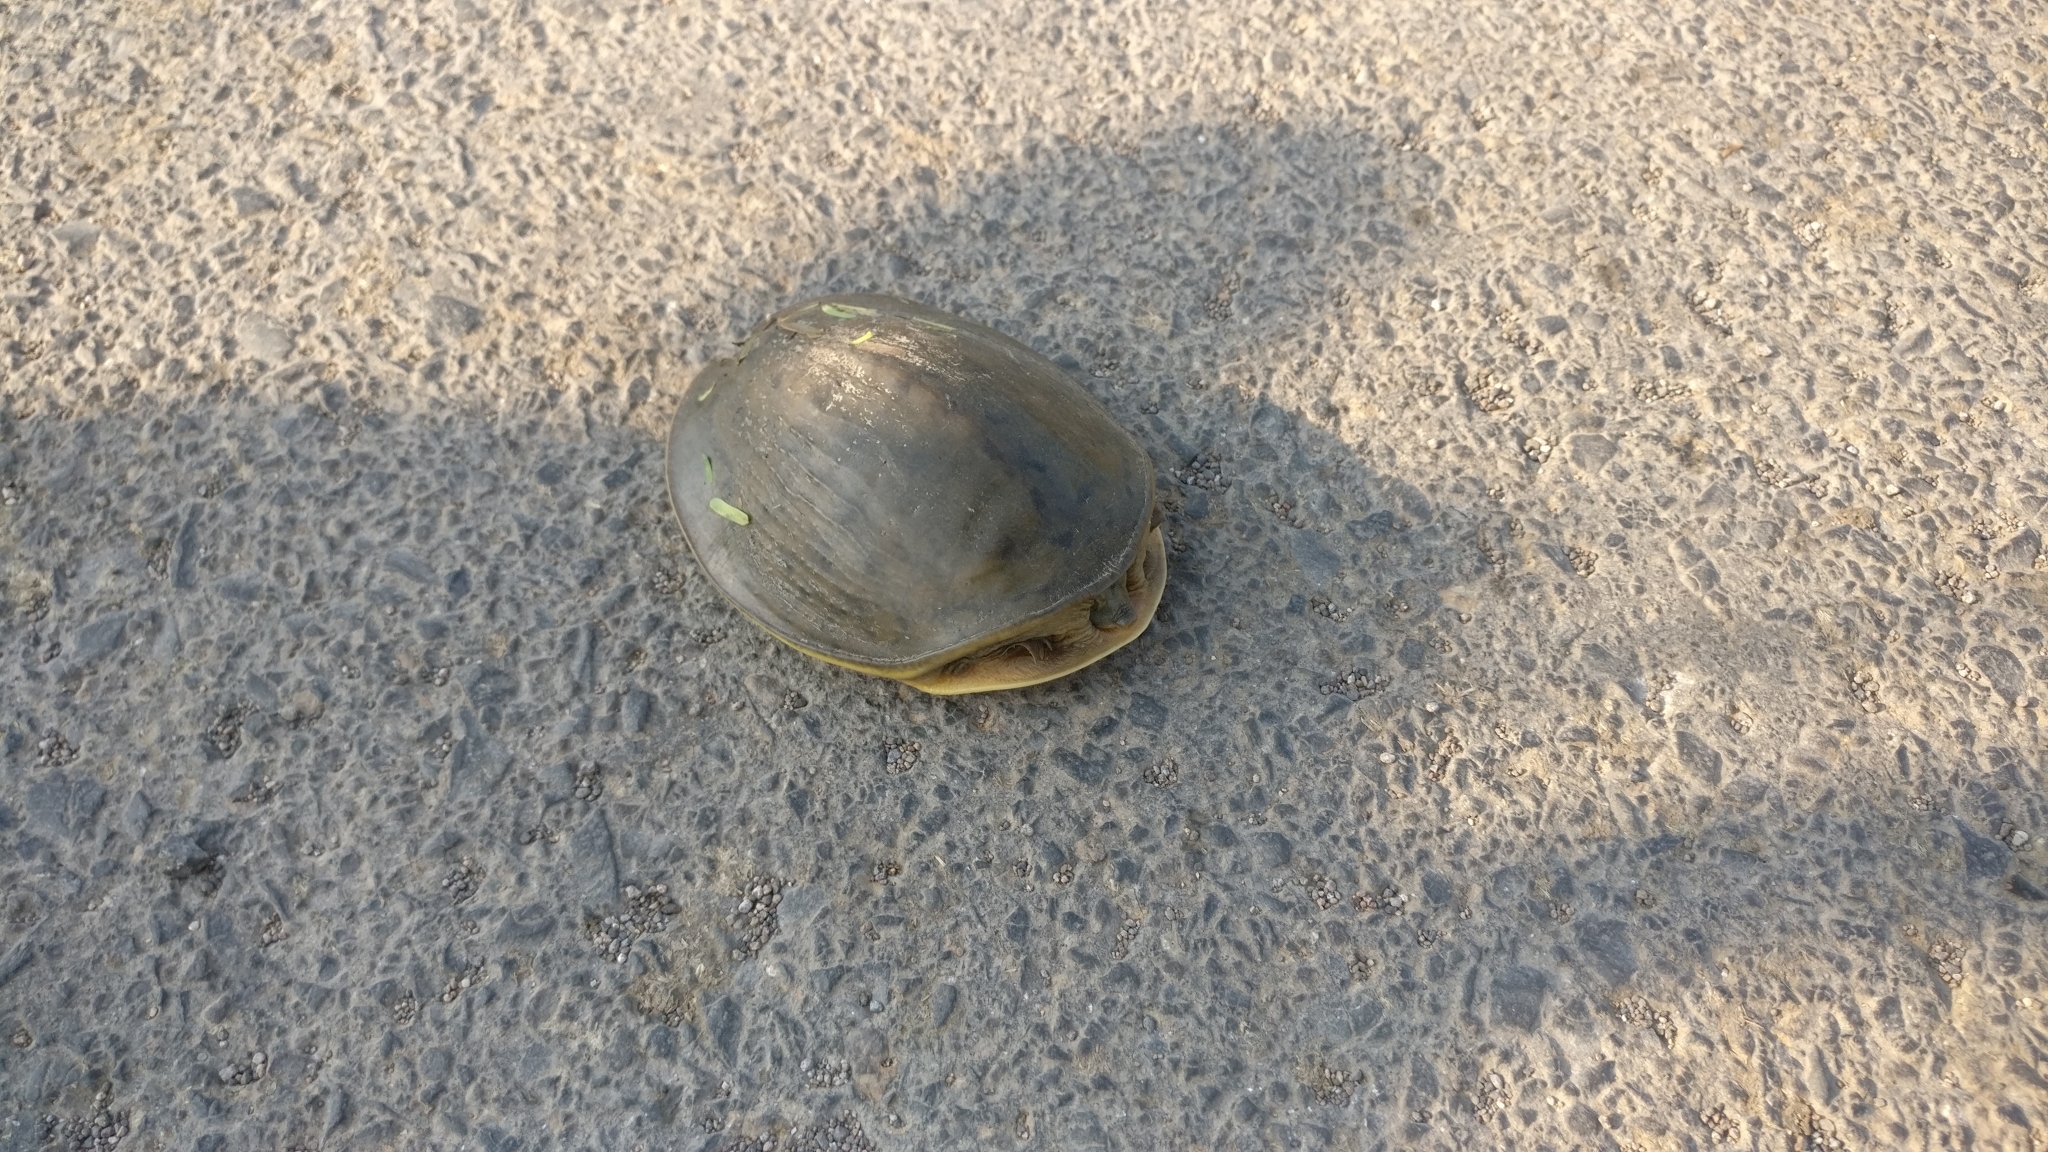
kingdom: Animalia
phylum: Chordata
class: Testudines
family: Trionychidae
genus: Lissemys
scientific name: Lissemys punctata
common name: Indian flap-shelled turtle
